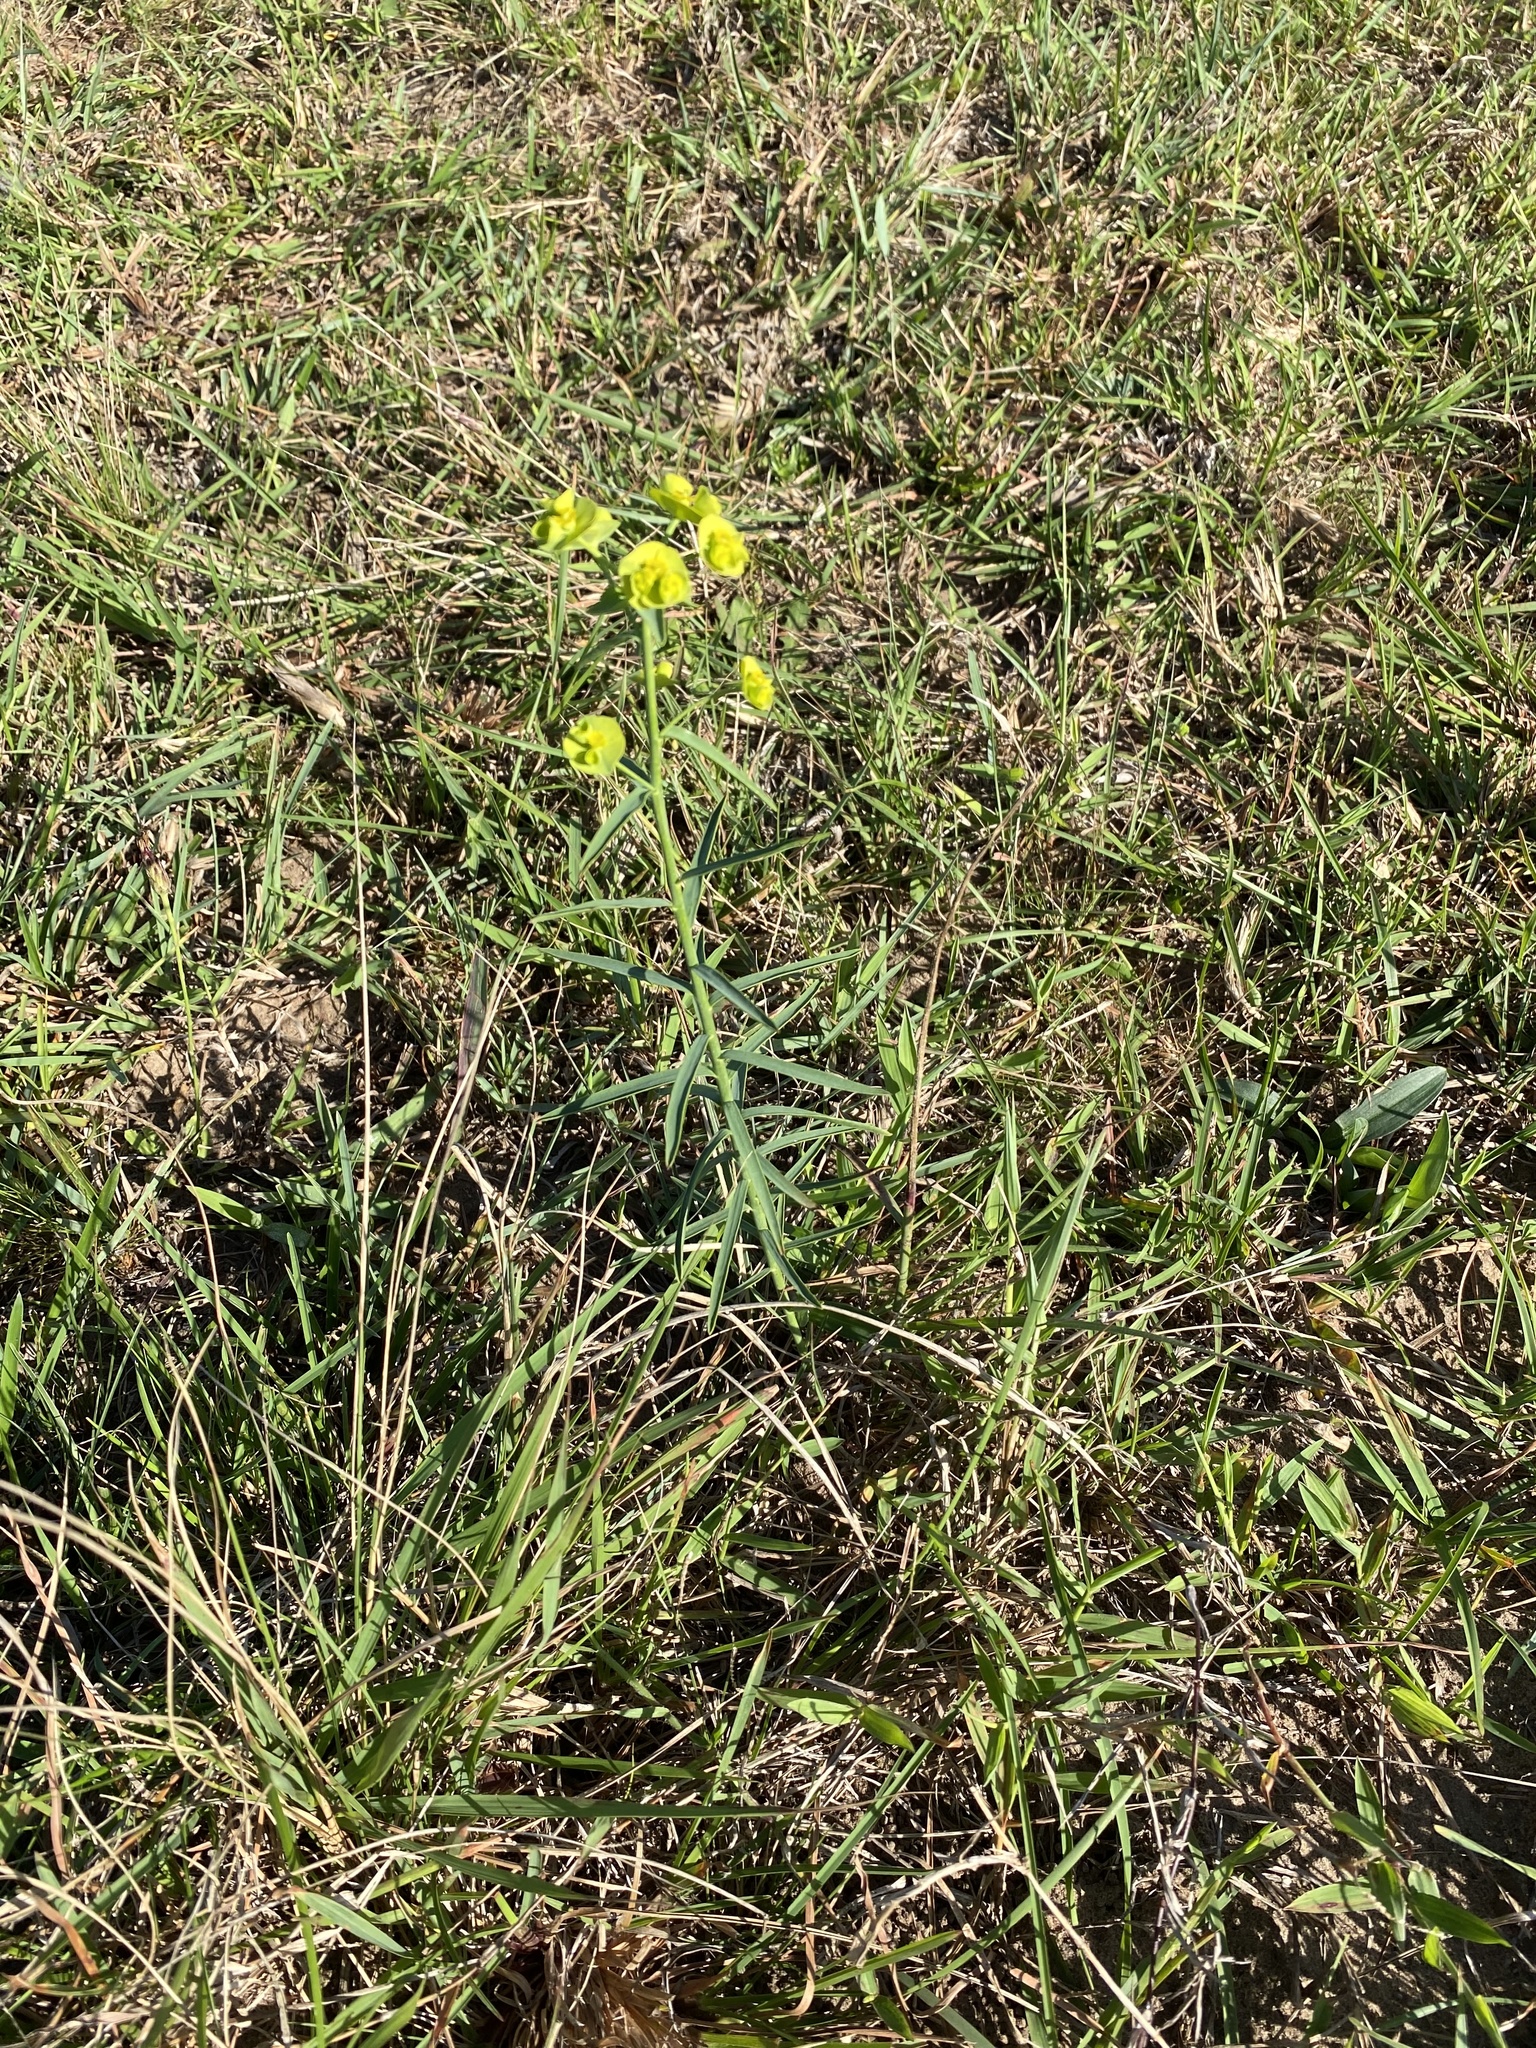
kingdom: Plantae
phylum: Tracheophyta
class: Magnoliopsida
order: Malpighiales
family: Euphorbiaceae
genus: Euphorbia
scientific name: Euphorbia striata
